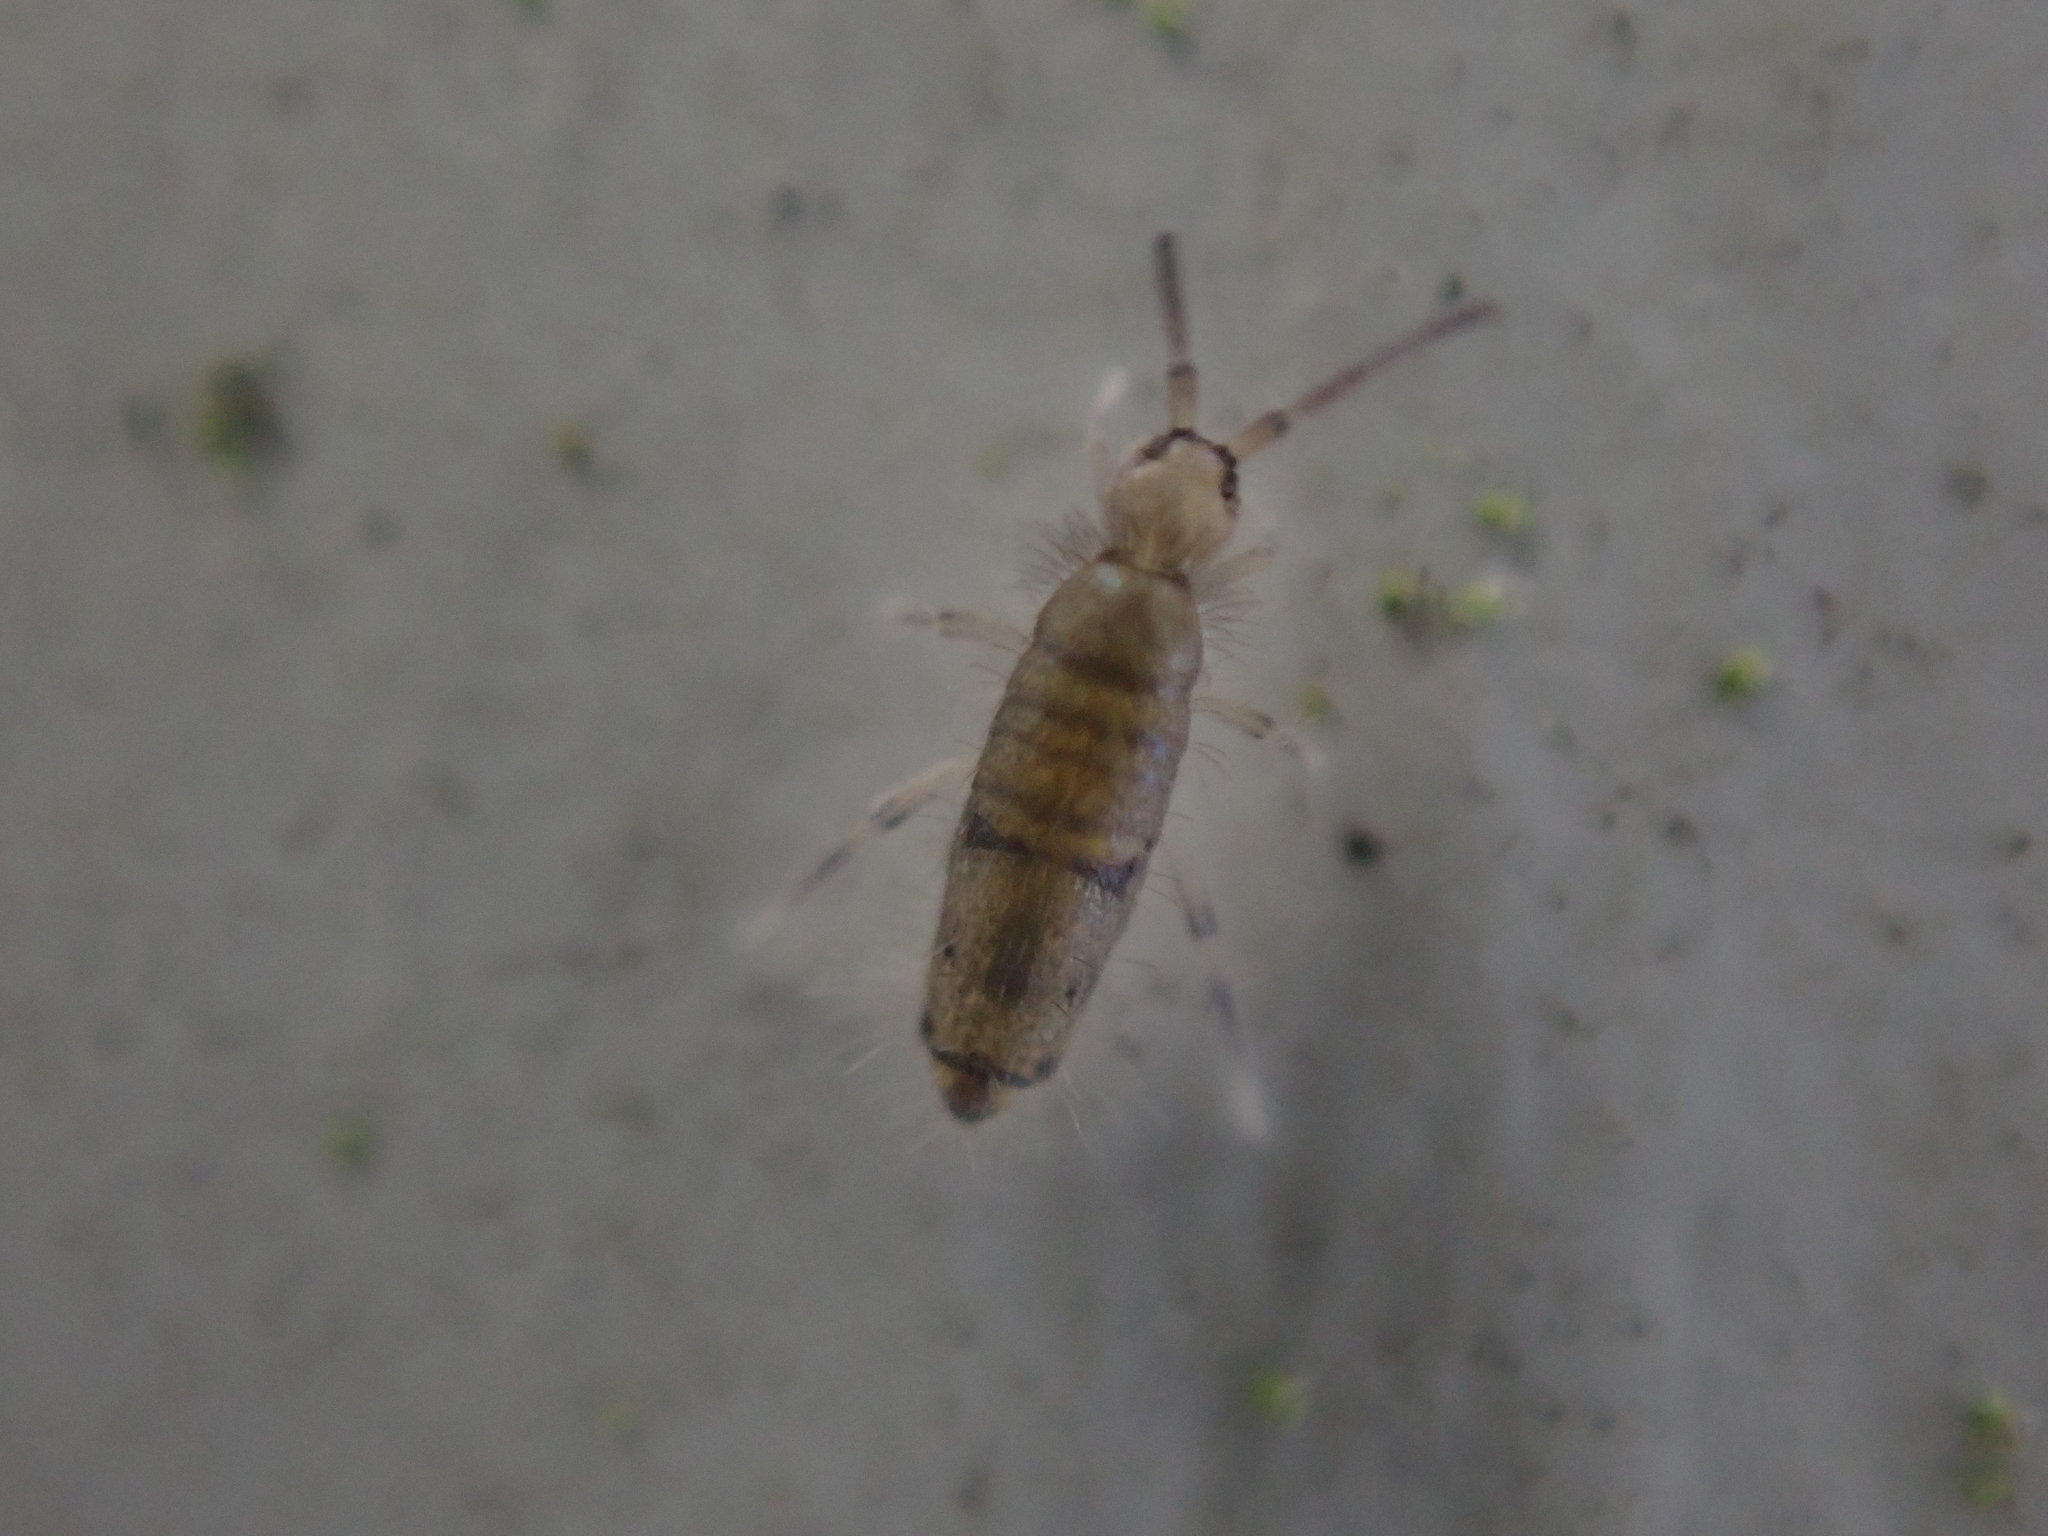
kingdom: Animalia
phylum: Arthropoda
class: Collembola
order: Entomobryomorpha
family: Entomobryidae
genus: Willowsia
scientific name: Willowsia nigromaculata
